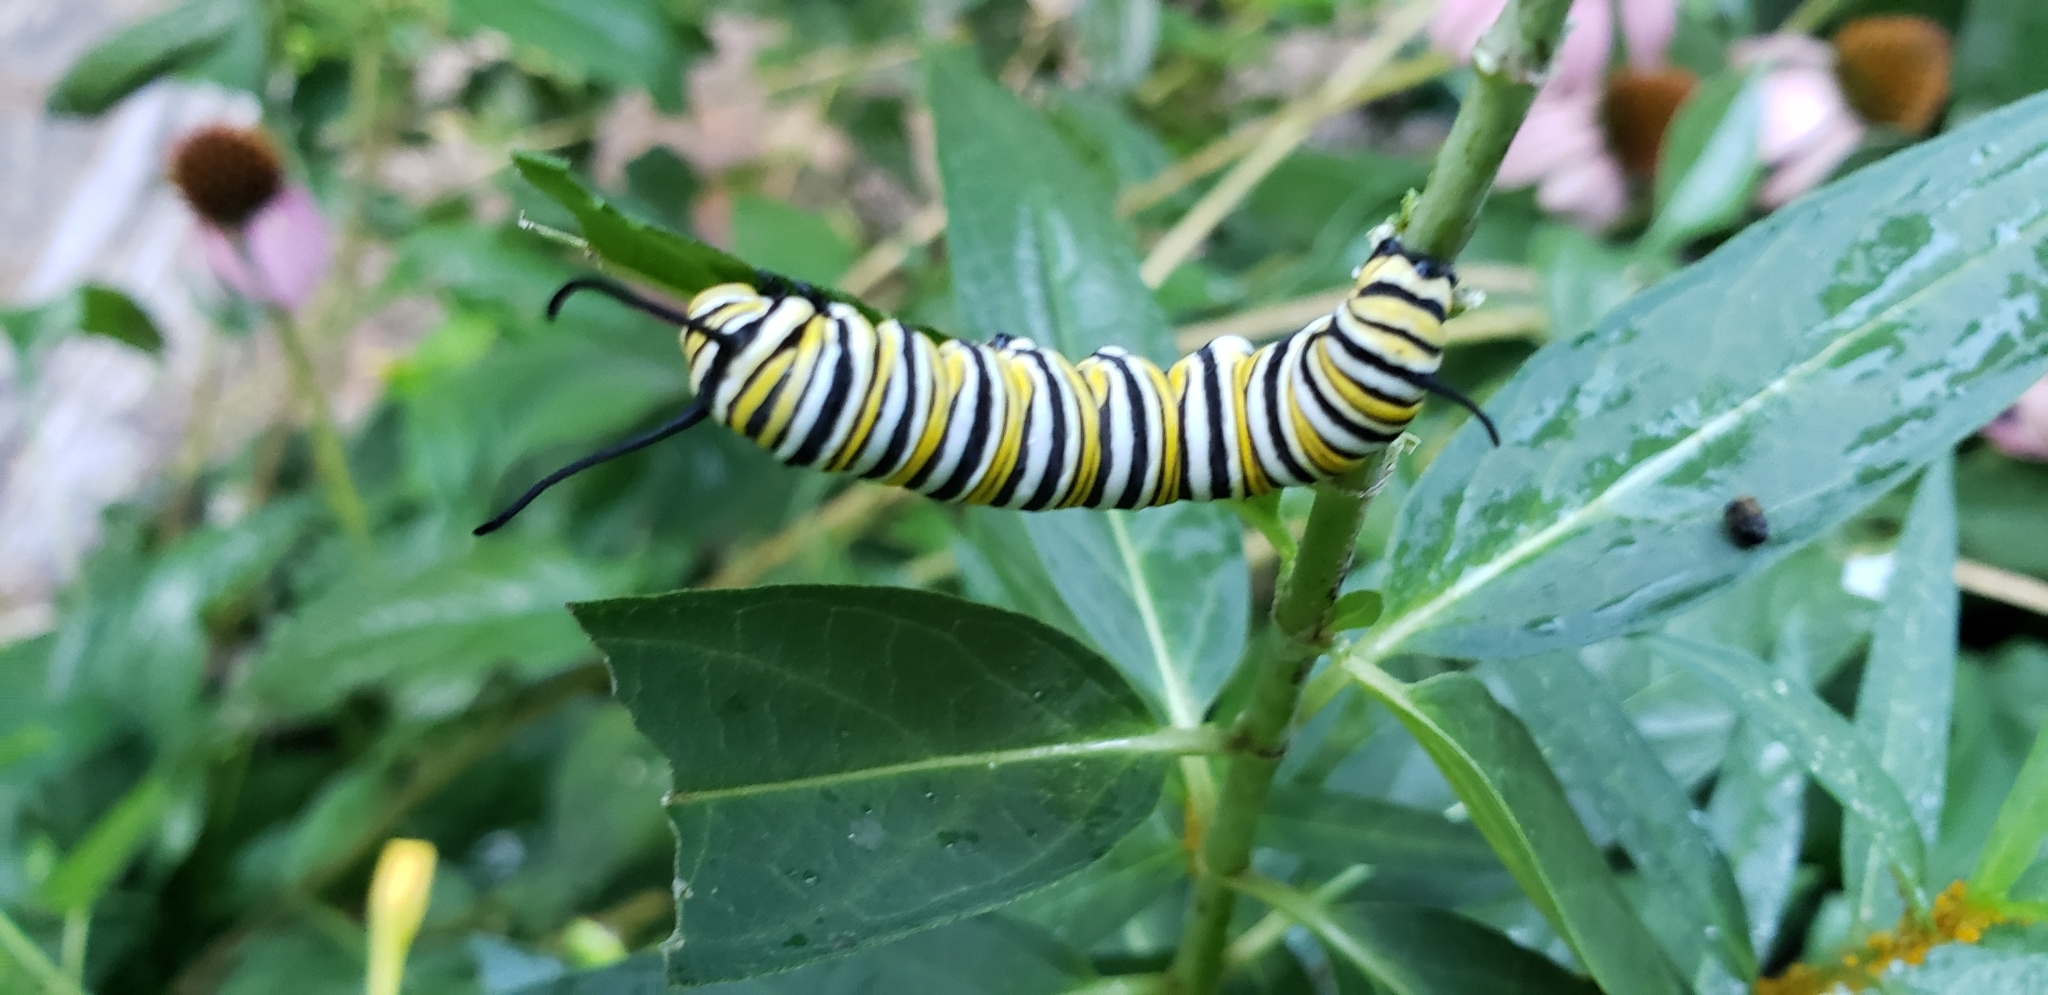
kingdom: Animalia
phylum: Arthropoda
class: Insecta
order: Lepidoptera
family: Nymphalidae
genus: Danaus
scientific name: Danaus plexippus
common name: Monarch
